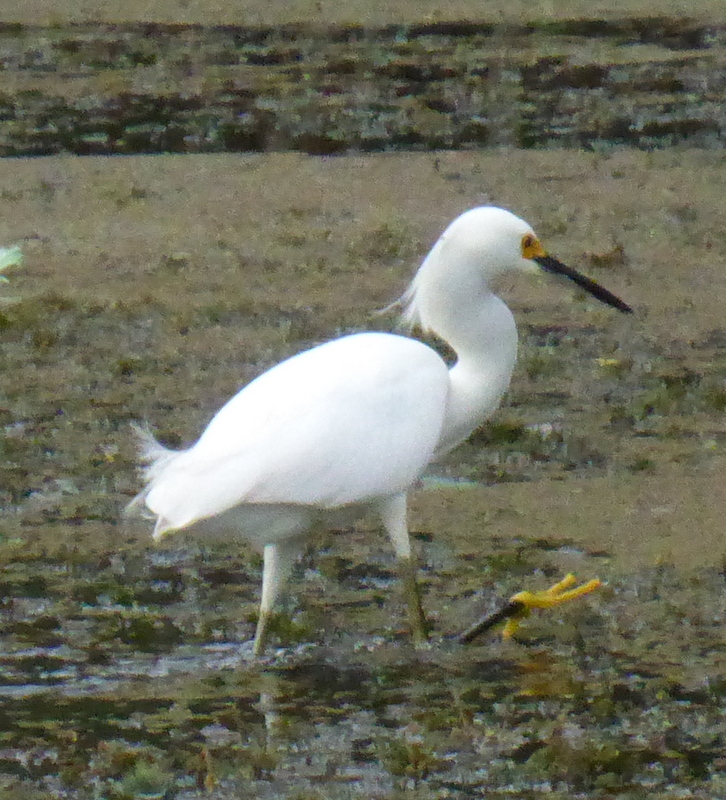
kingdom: Animalia
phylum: Chordata
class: Aves
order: Pelecaniformes
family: Ardeidae
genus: Egretta
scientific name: Egretta thula
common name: Snowy egret
